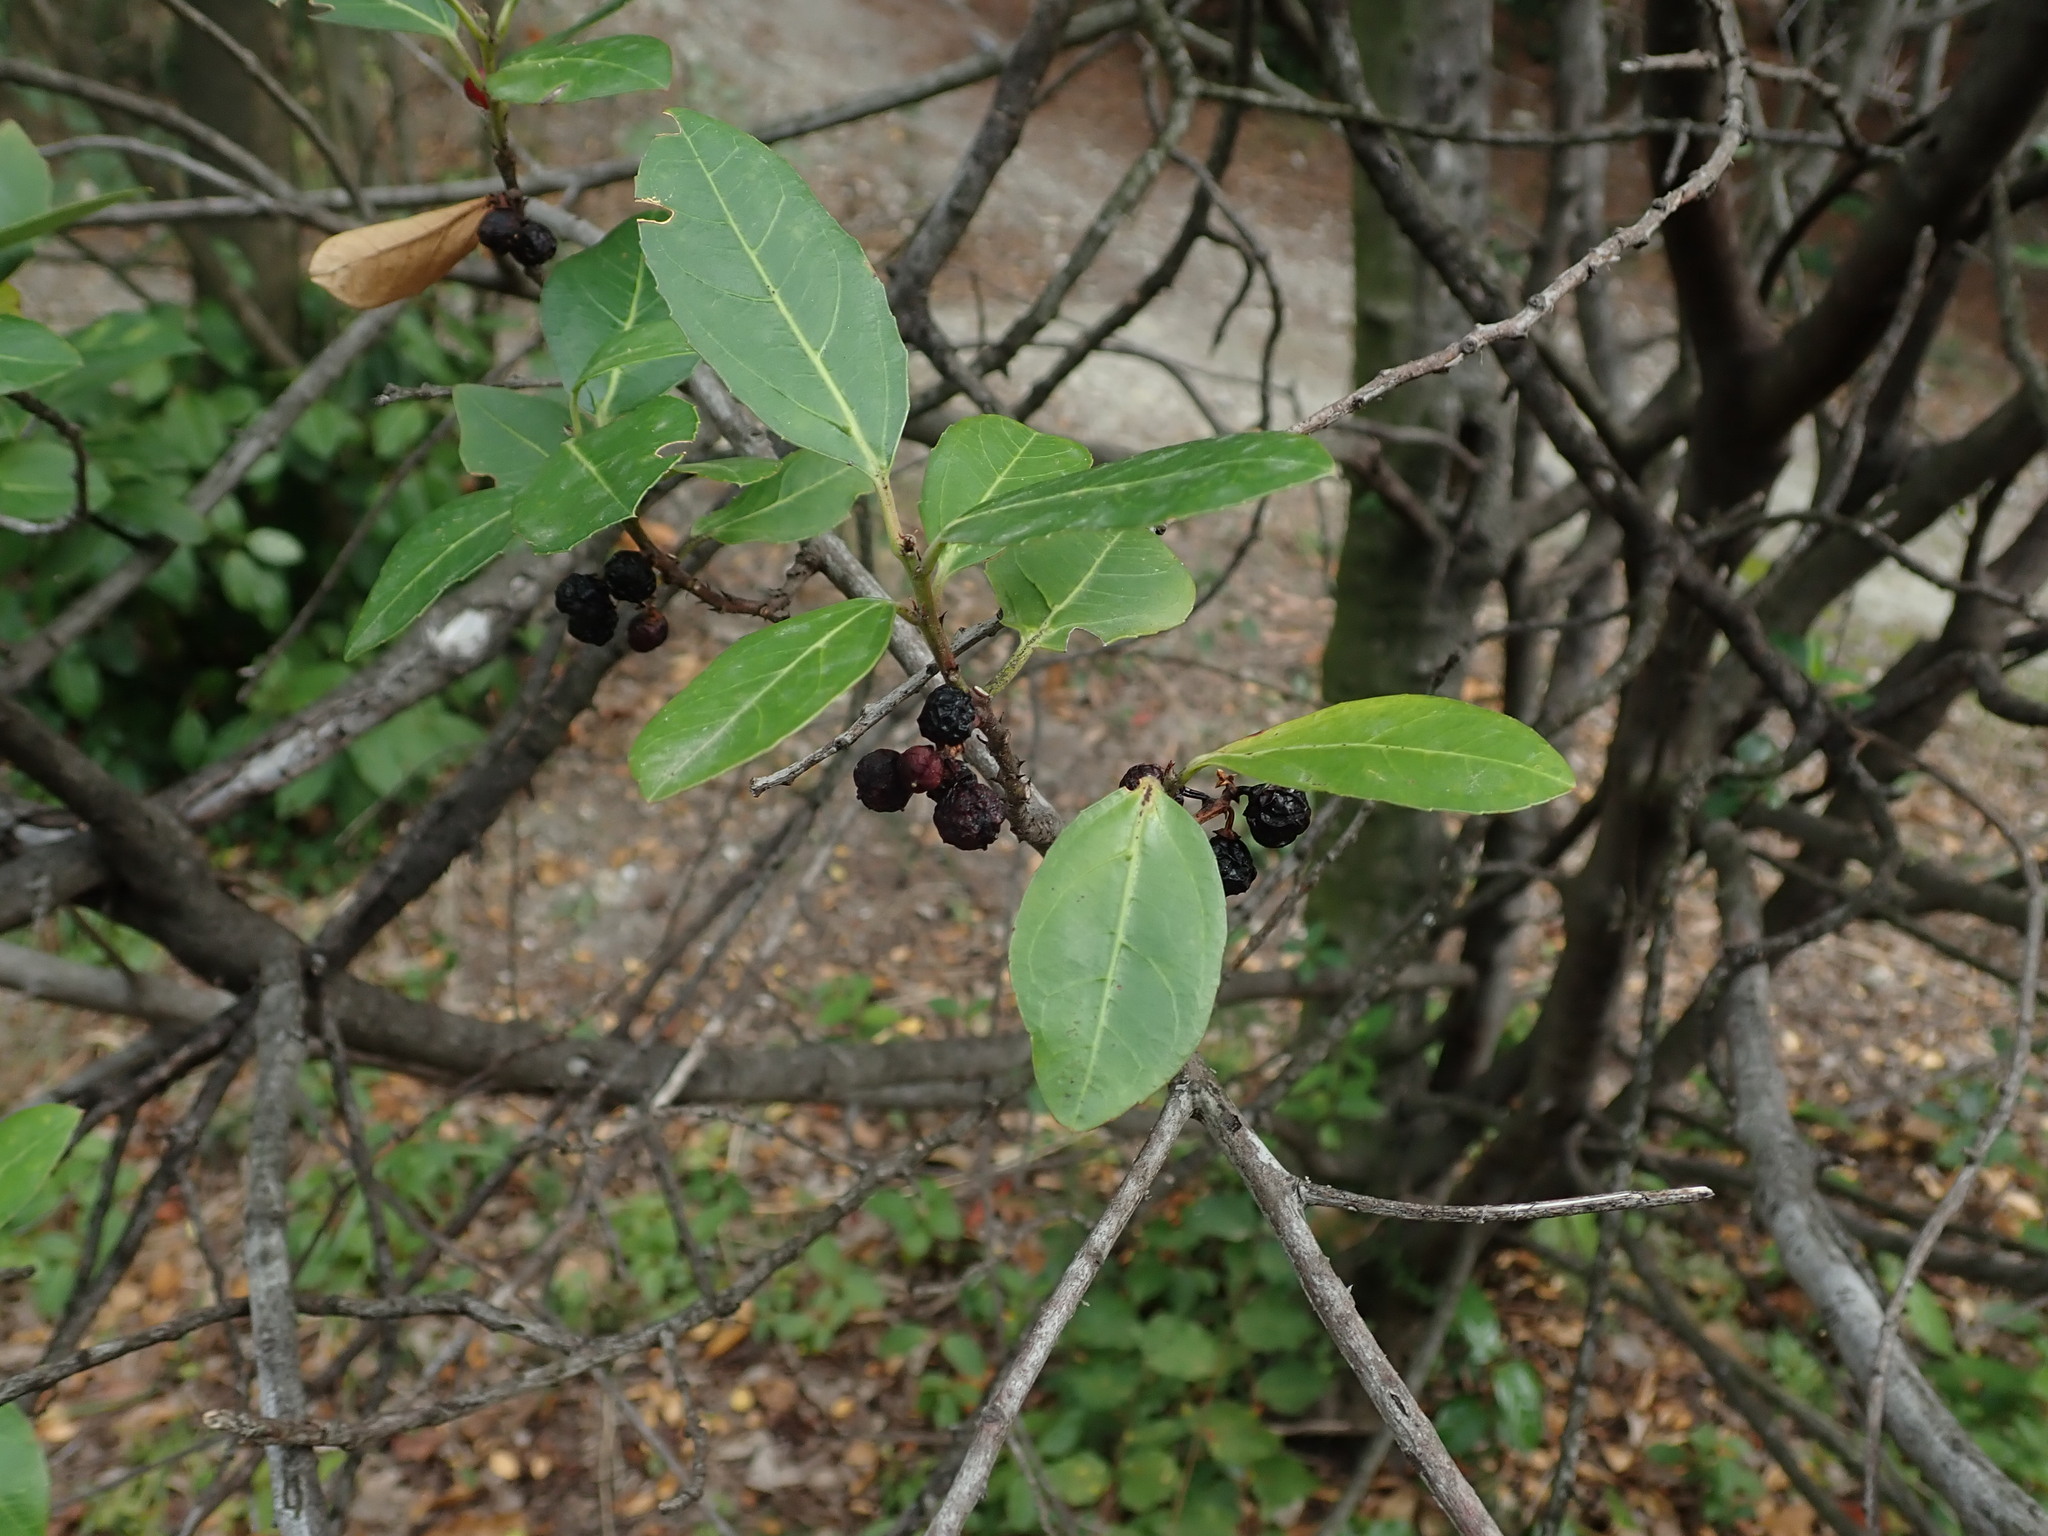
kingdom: Plantae
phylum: Tracheophyta
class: Magnoliopsida
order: Rosales
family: Rhamnaceae
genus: Rhamnus
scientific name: Rhamnus alaternus
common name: Mediterranean buckthorn
